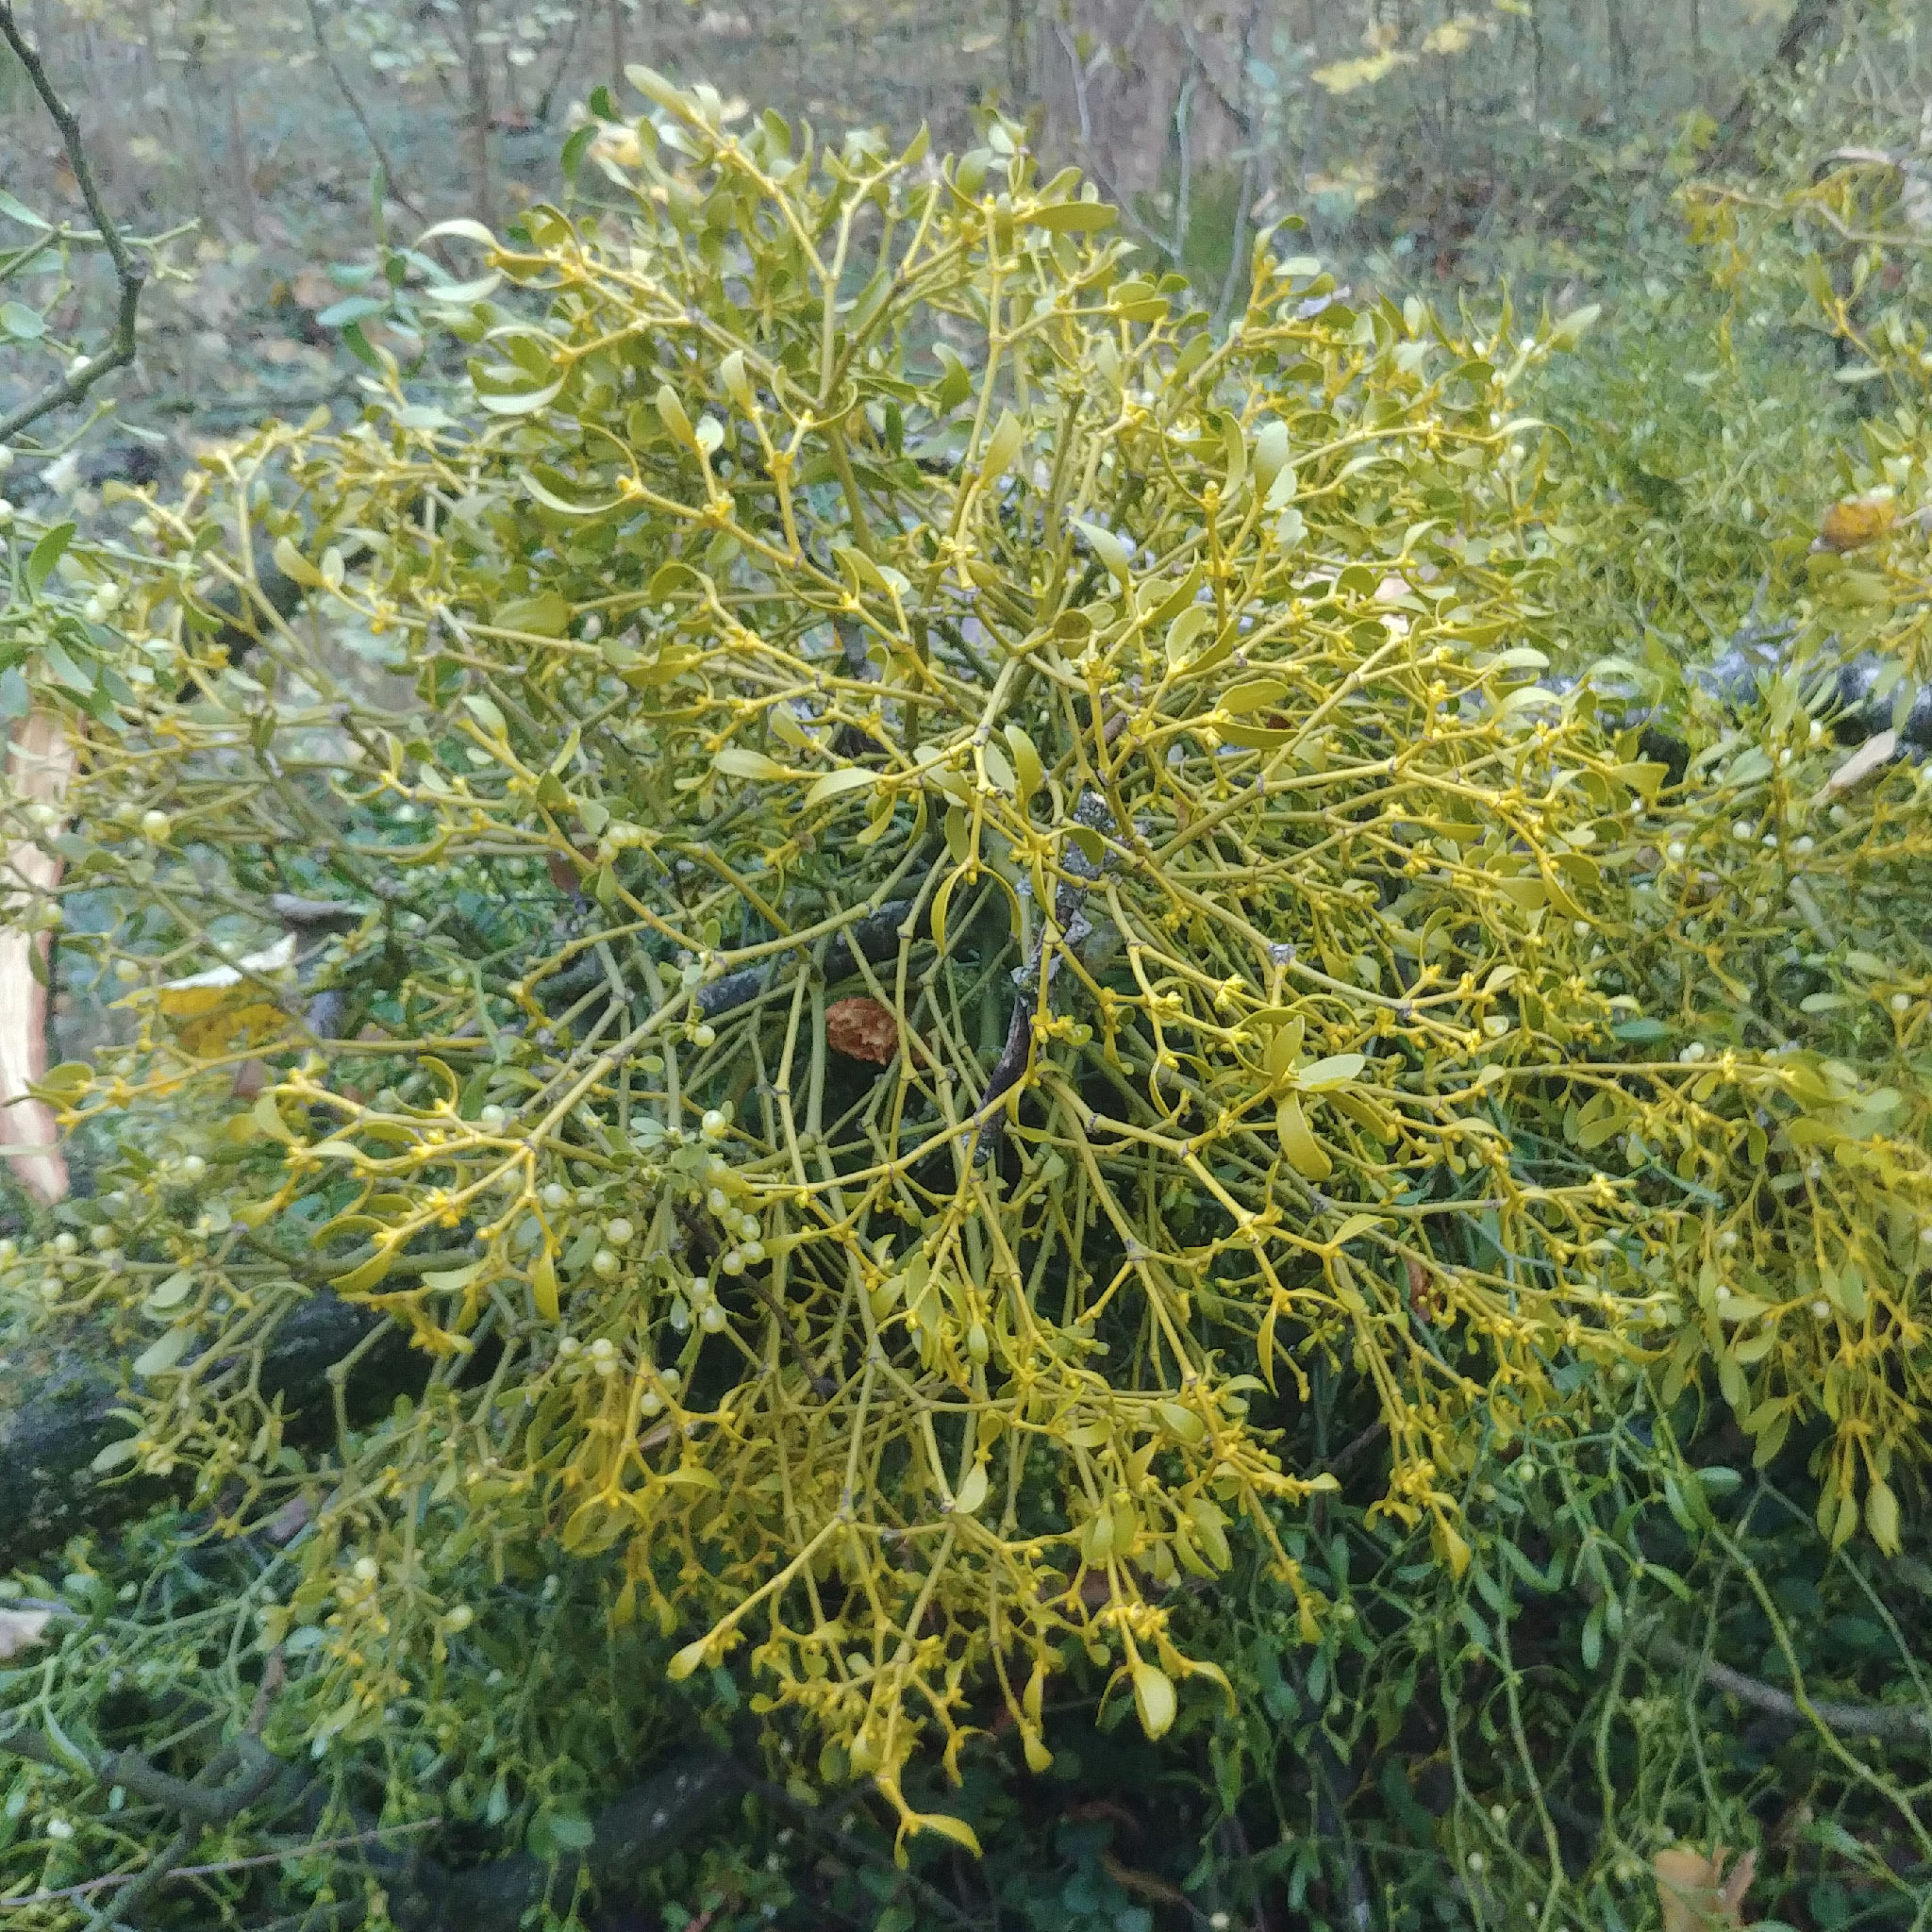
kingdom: Plantae
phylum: Tracheophyta
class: Magnoliopsida
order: Santalales
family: Viscaceae
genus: Viscum
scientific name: Viscum album
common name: Mistletoe
